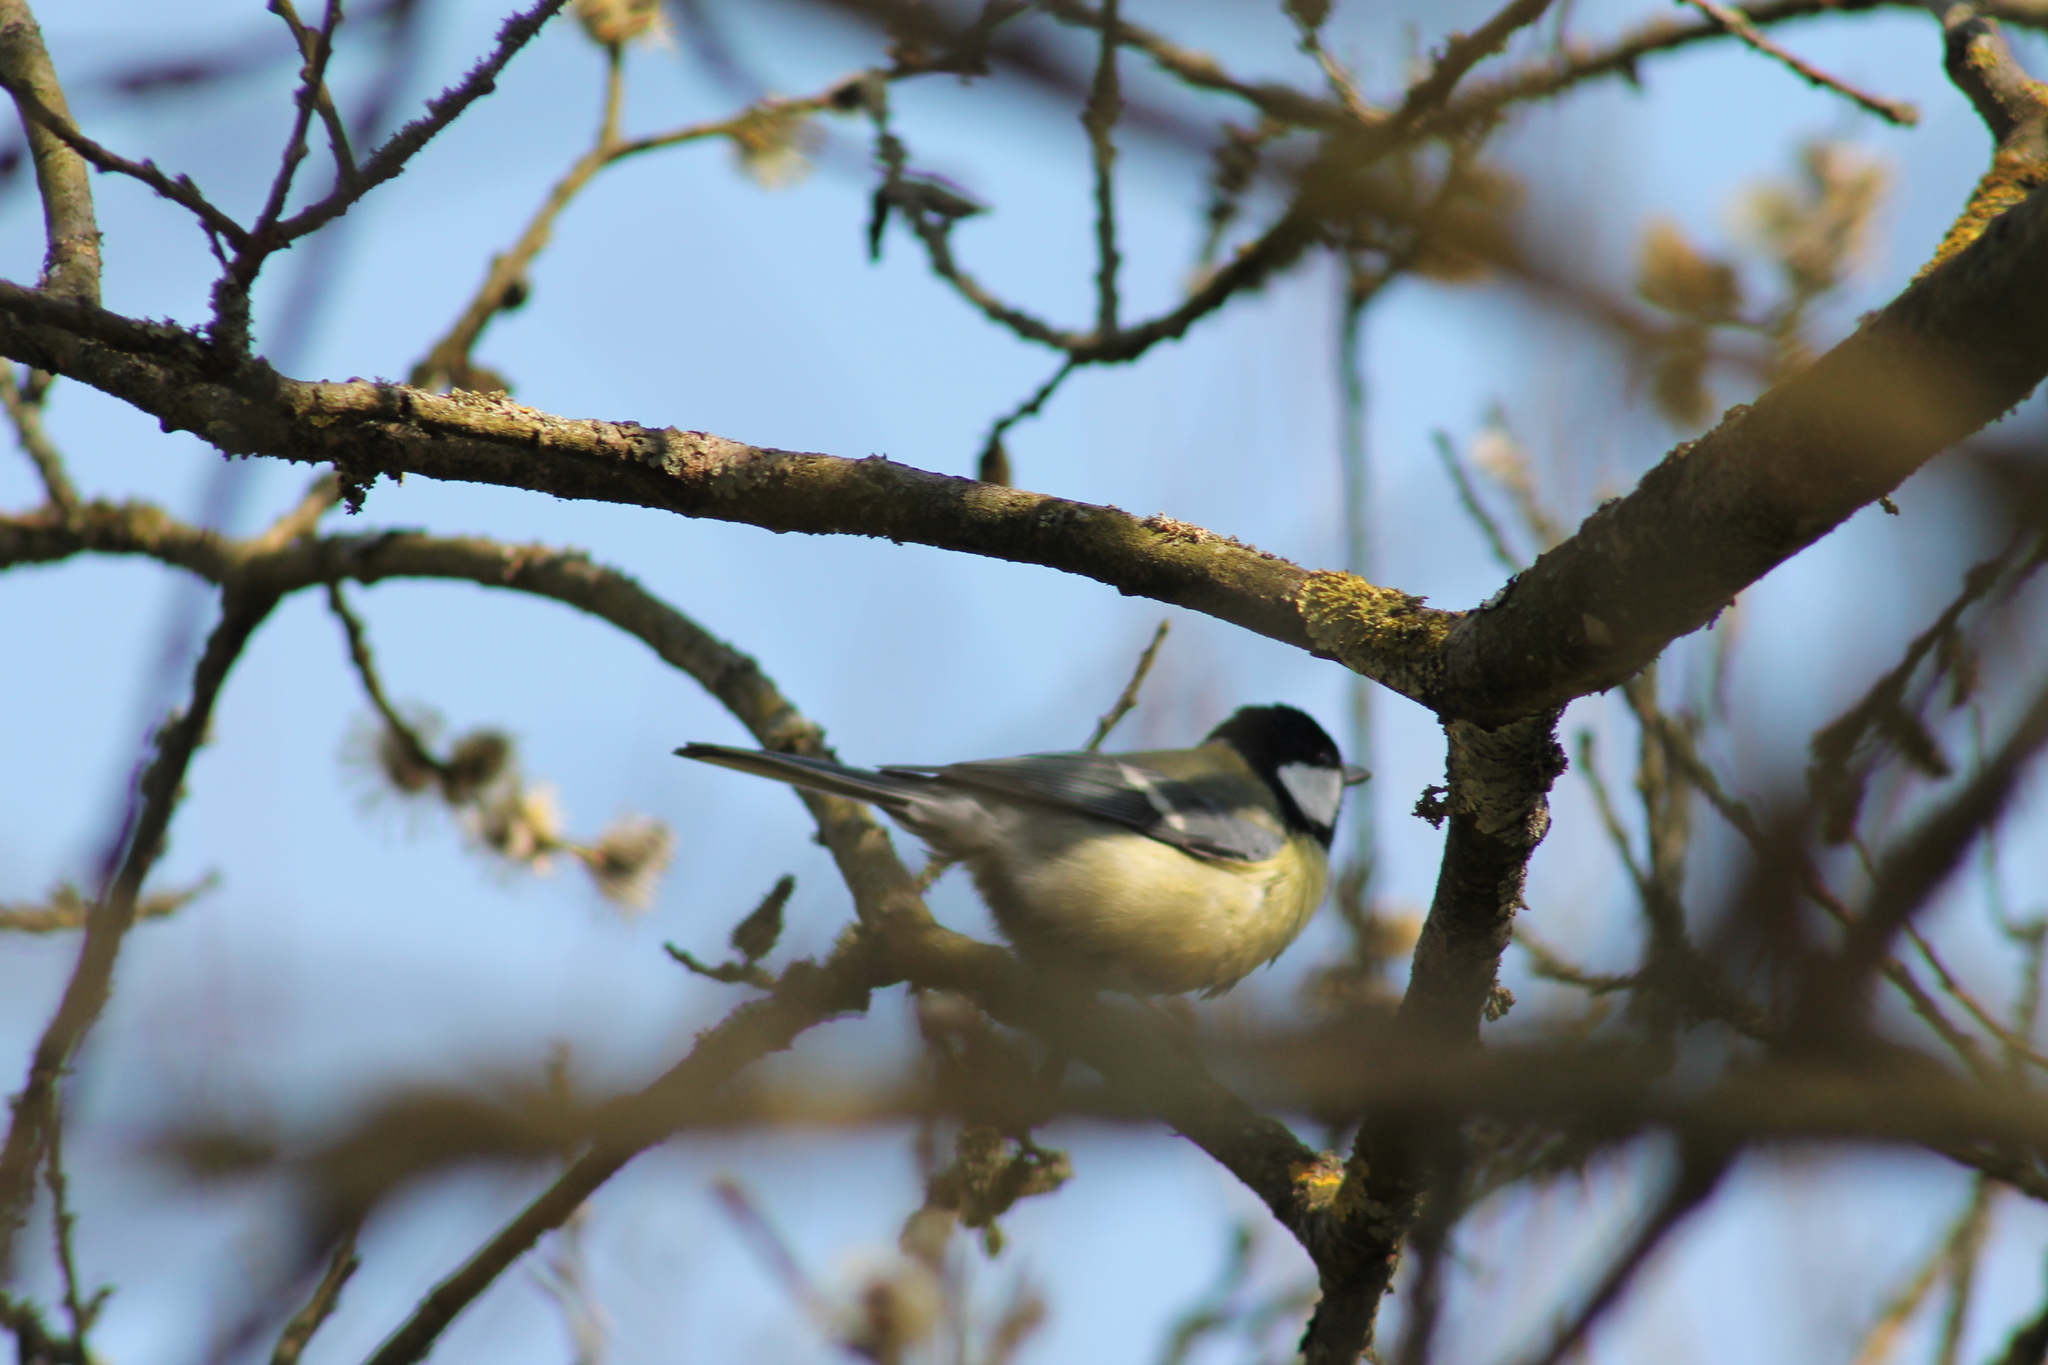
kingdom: Animalia
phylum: Chordata
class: Aves
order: Passeriformes
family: Paridae
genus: Parus
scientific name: Parus major
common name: Great tit
